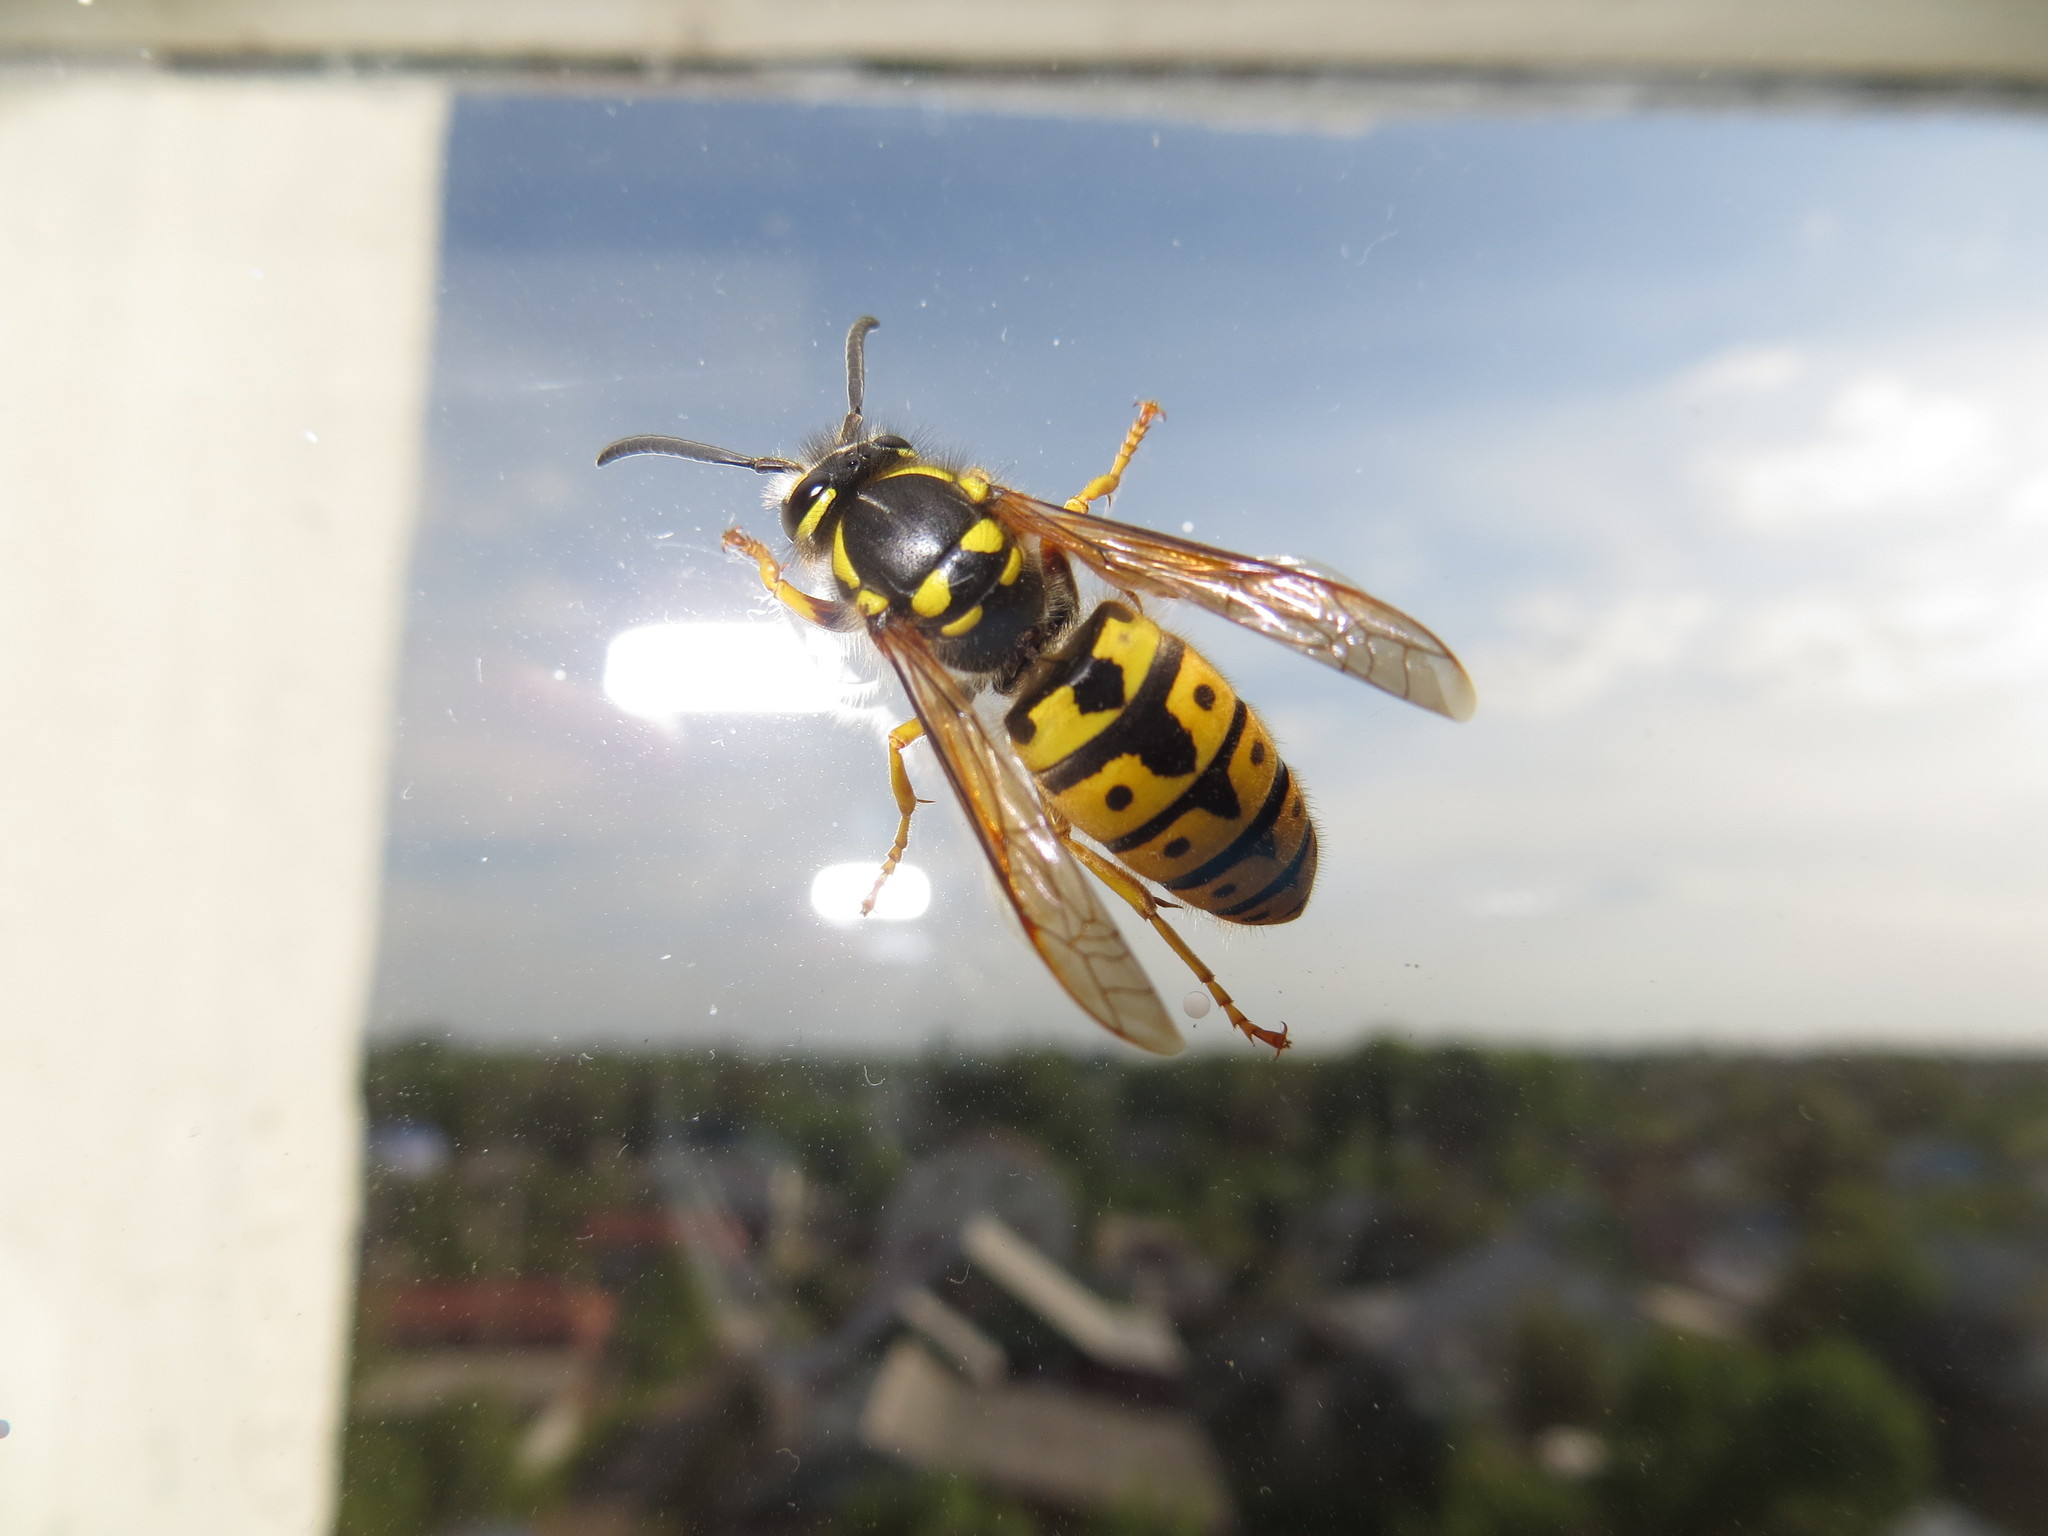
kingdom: Animalia
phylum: Arthropoda
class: Insecta
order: Hymenoptera
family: Vespidae
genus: Vespula
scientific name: Vespula germanica
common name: German wasp
